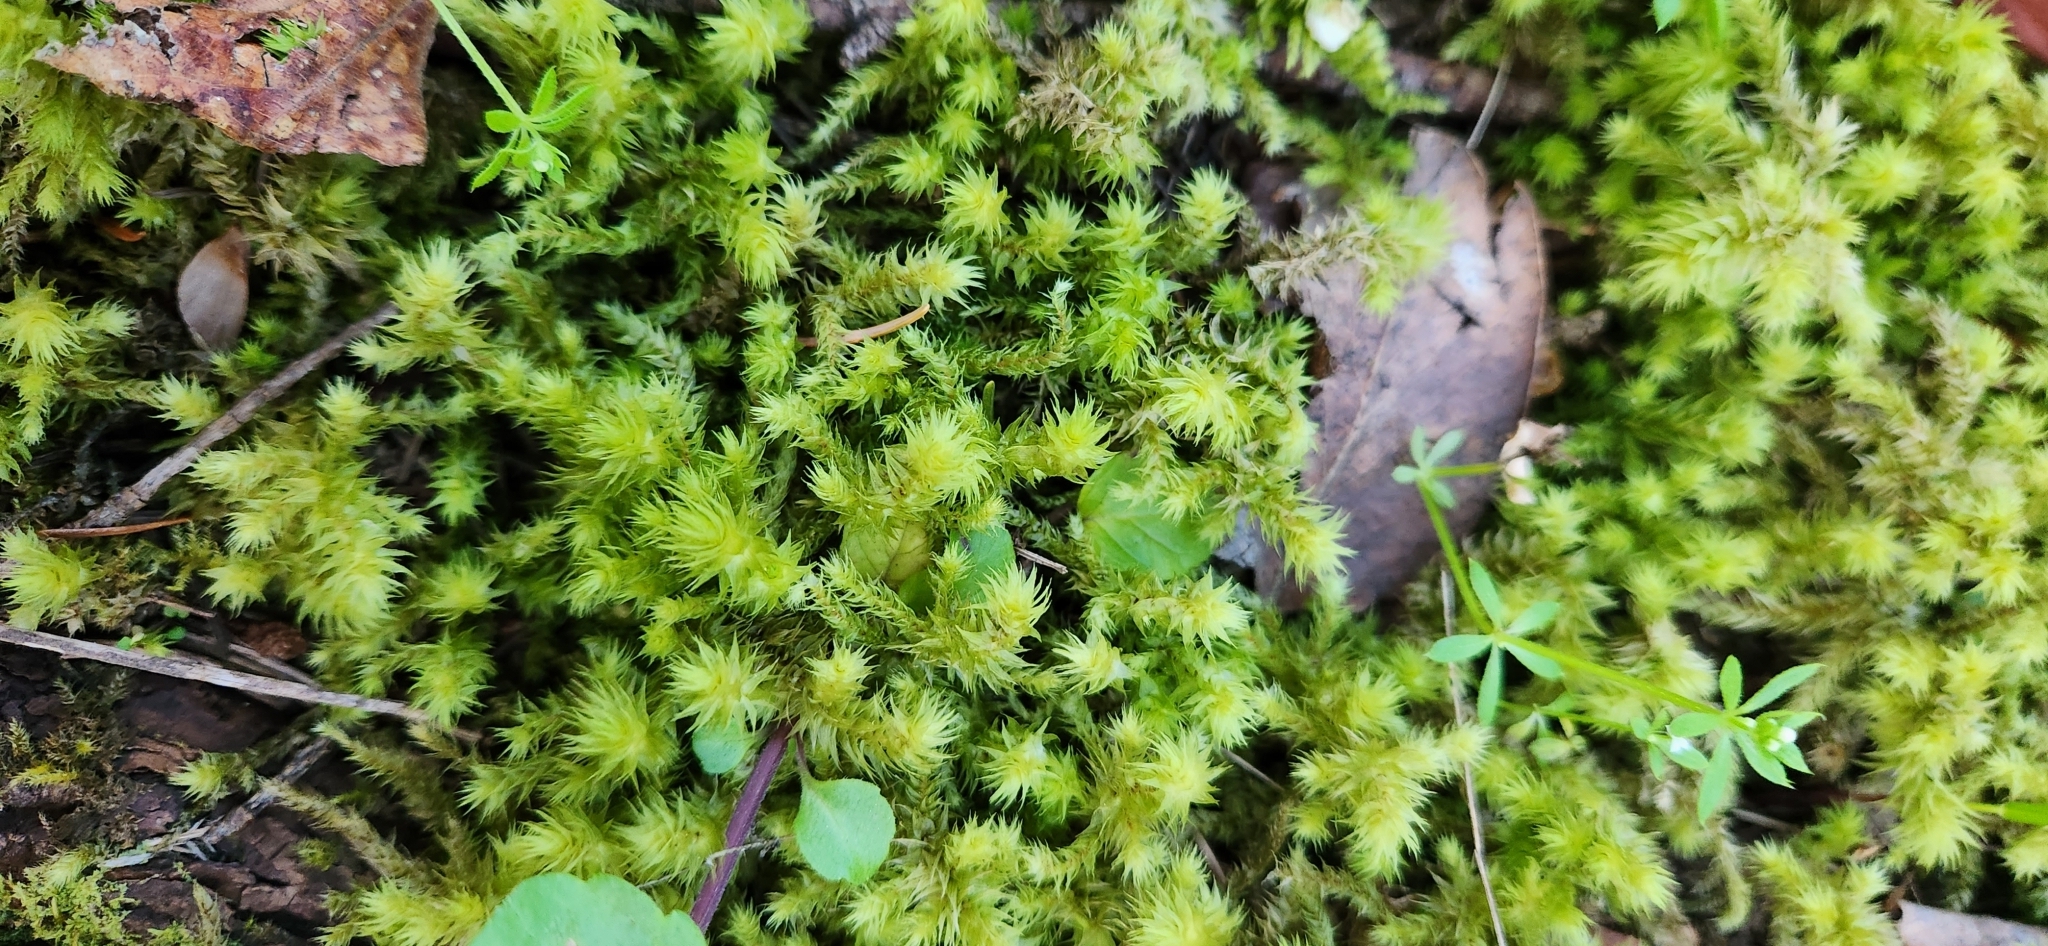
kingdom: Plantae
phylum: Bryophyta
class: Bryopsida
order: Hypnales
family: Hylocomiaceae
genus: Hylocomiadelphus
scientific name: Hylocomiadelphus triquetrus
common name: Rough goose neck moss
